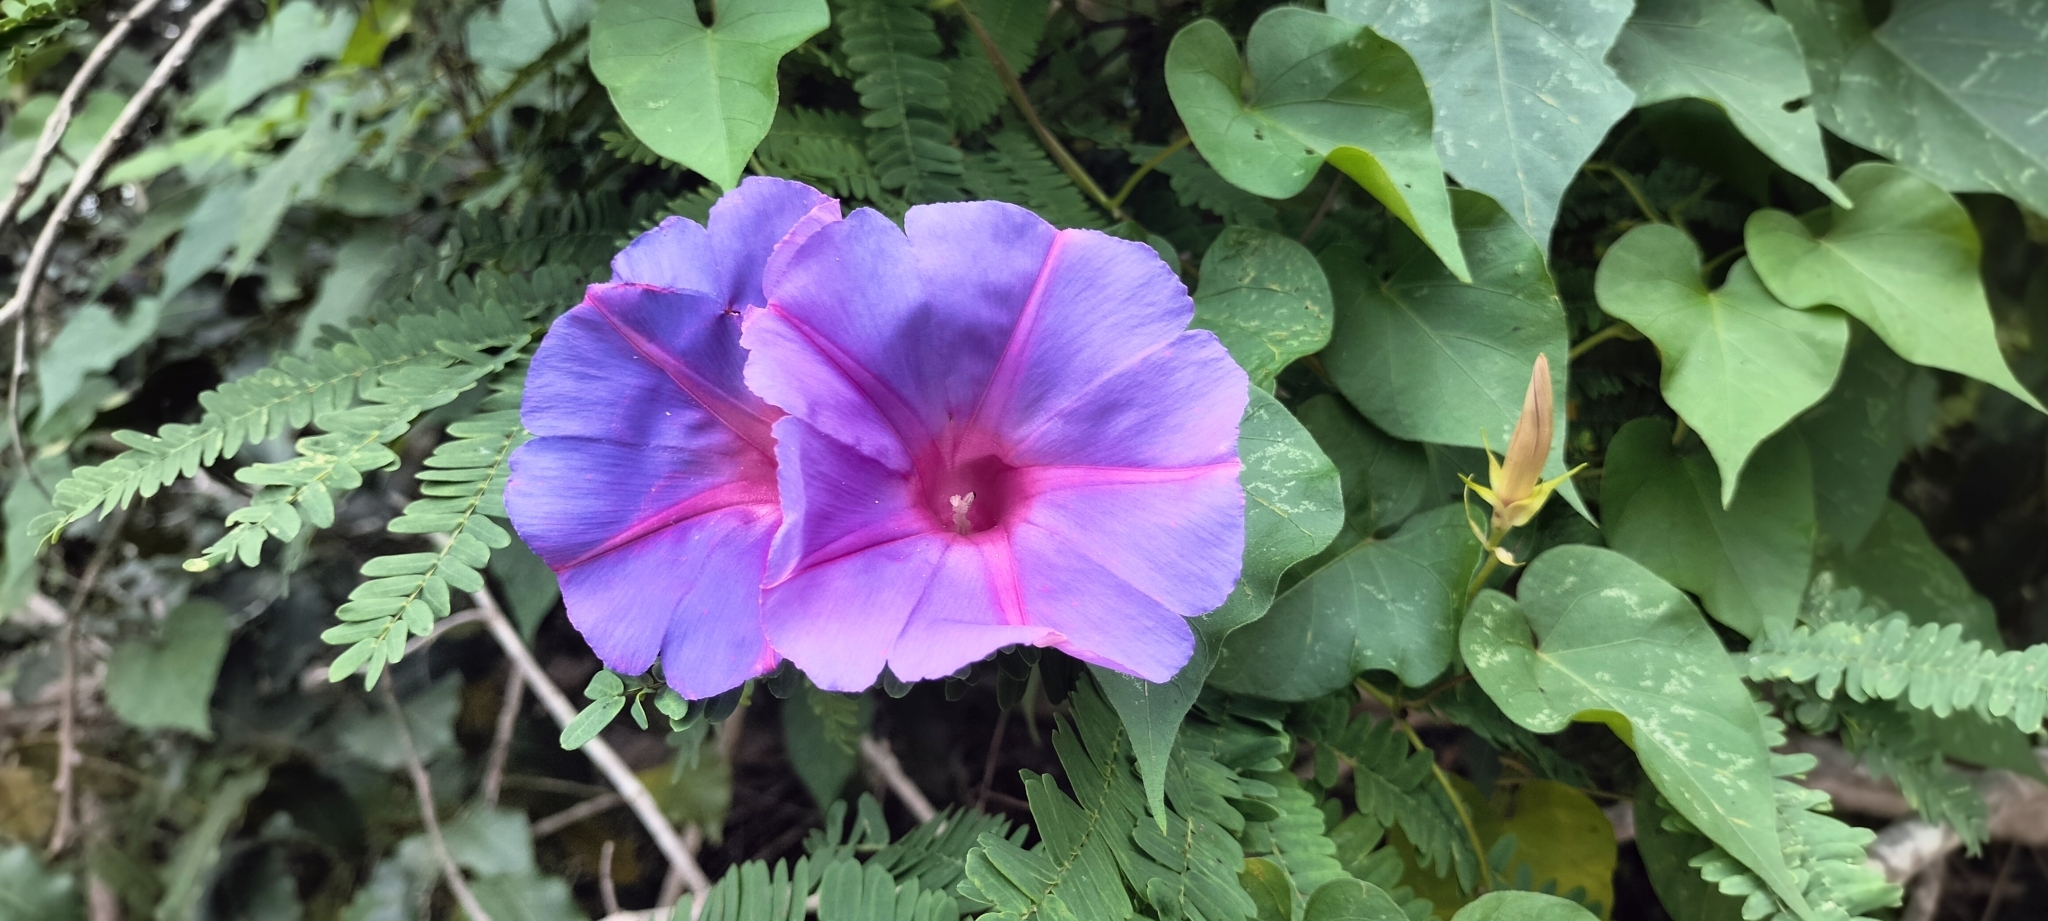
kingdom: Plantae
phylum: Tracheophyta
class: Magnoliopsida
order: Solanales
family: Convolvulaceae
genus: Ipomoea
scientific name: Ipomoea indica
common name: Blue dawnflower
